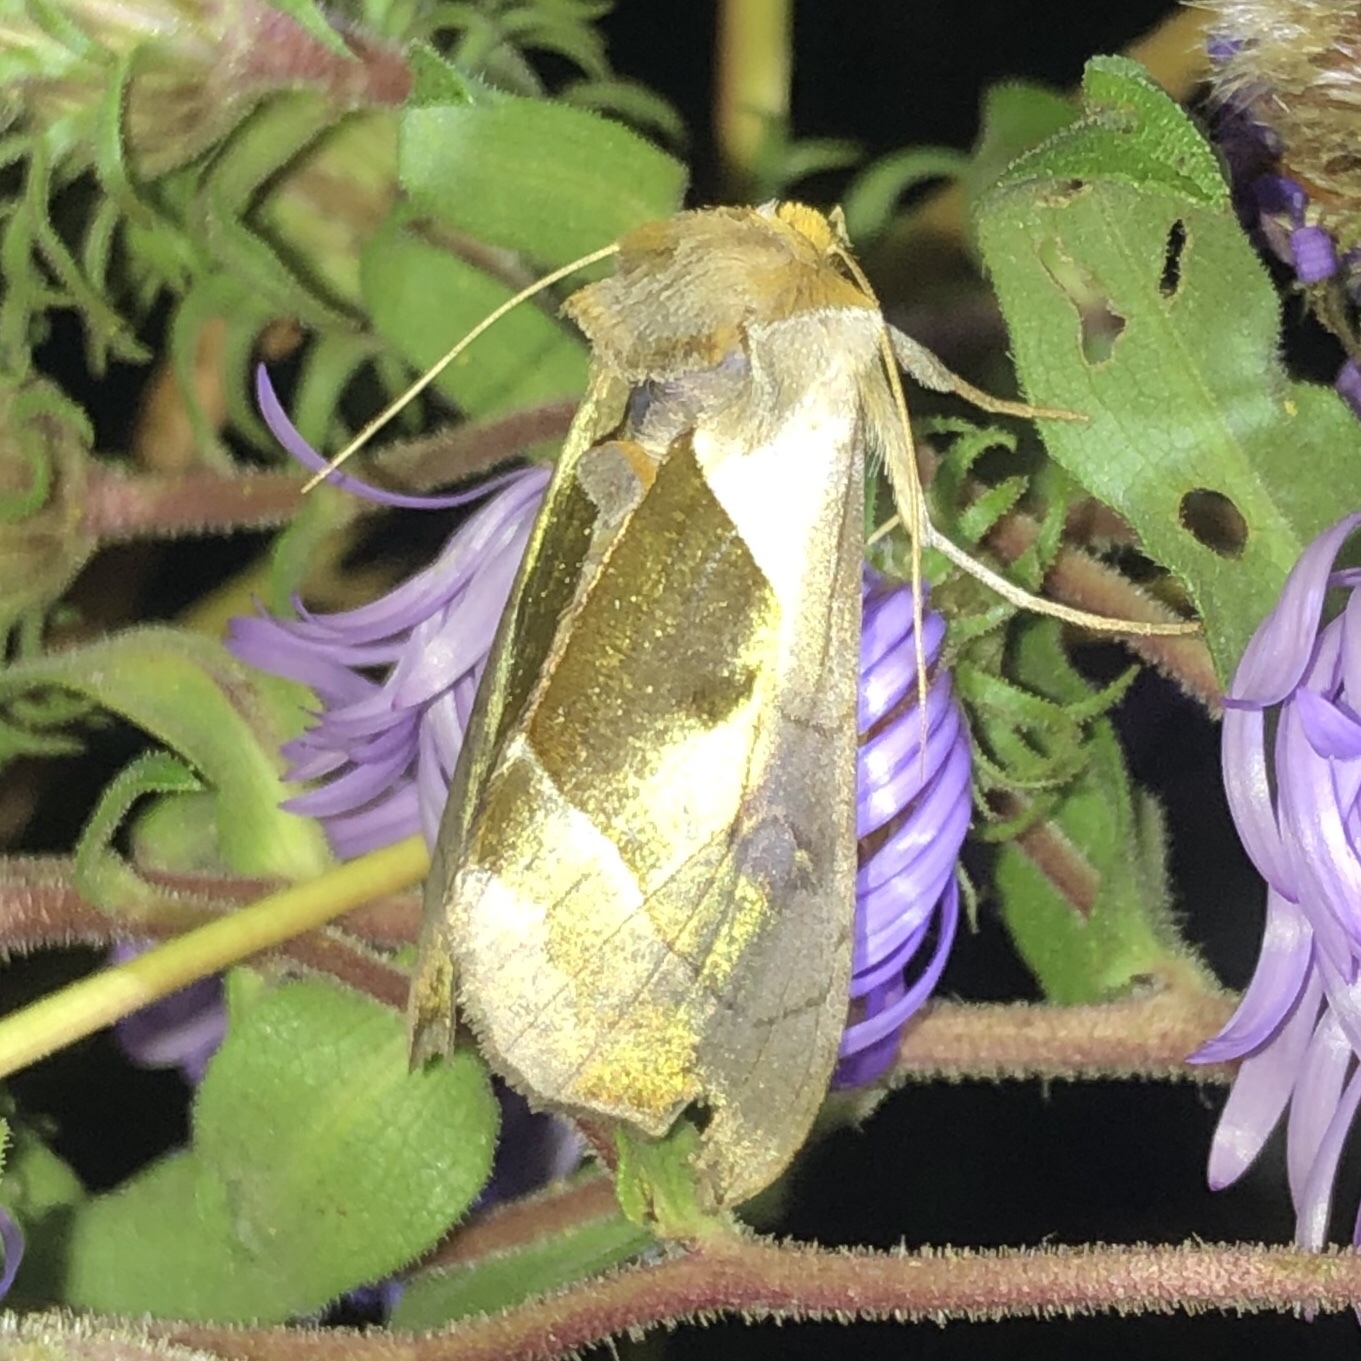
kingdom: Animalia
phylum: Arthropoda
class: Insecta
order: Lepidoptera
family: Noctuidae
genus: Diachrysia
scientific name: Diachrysia balluca
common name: Green-patched looper moth
